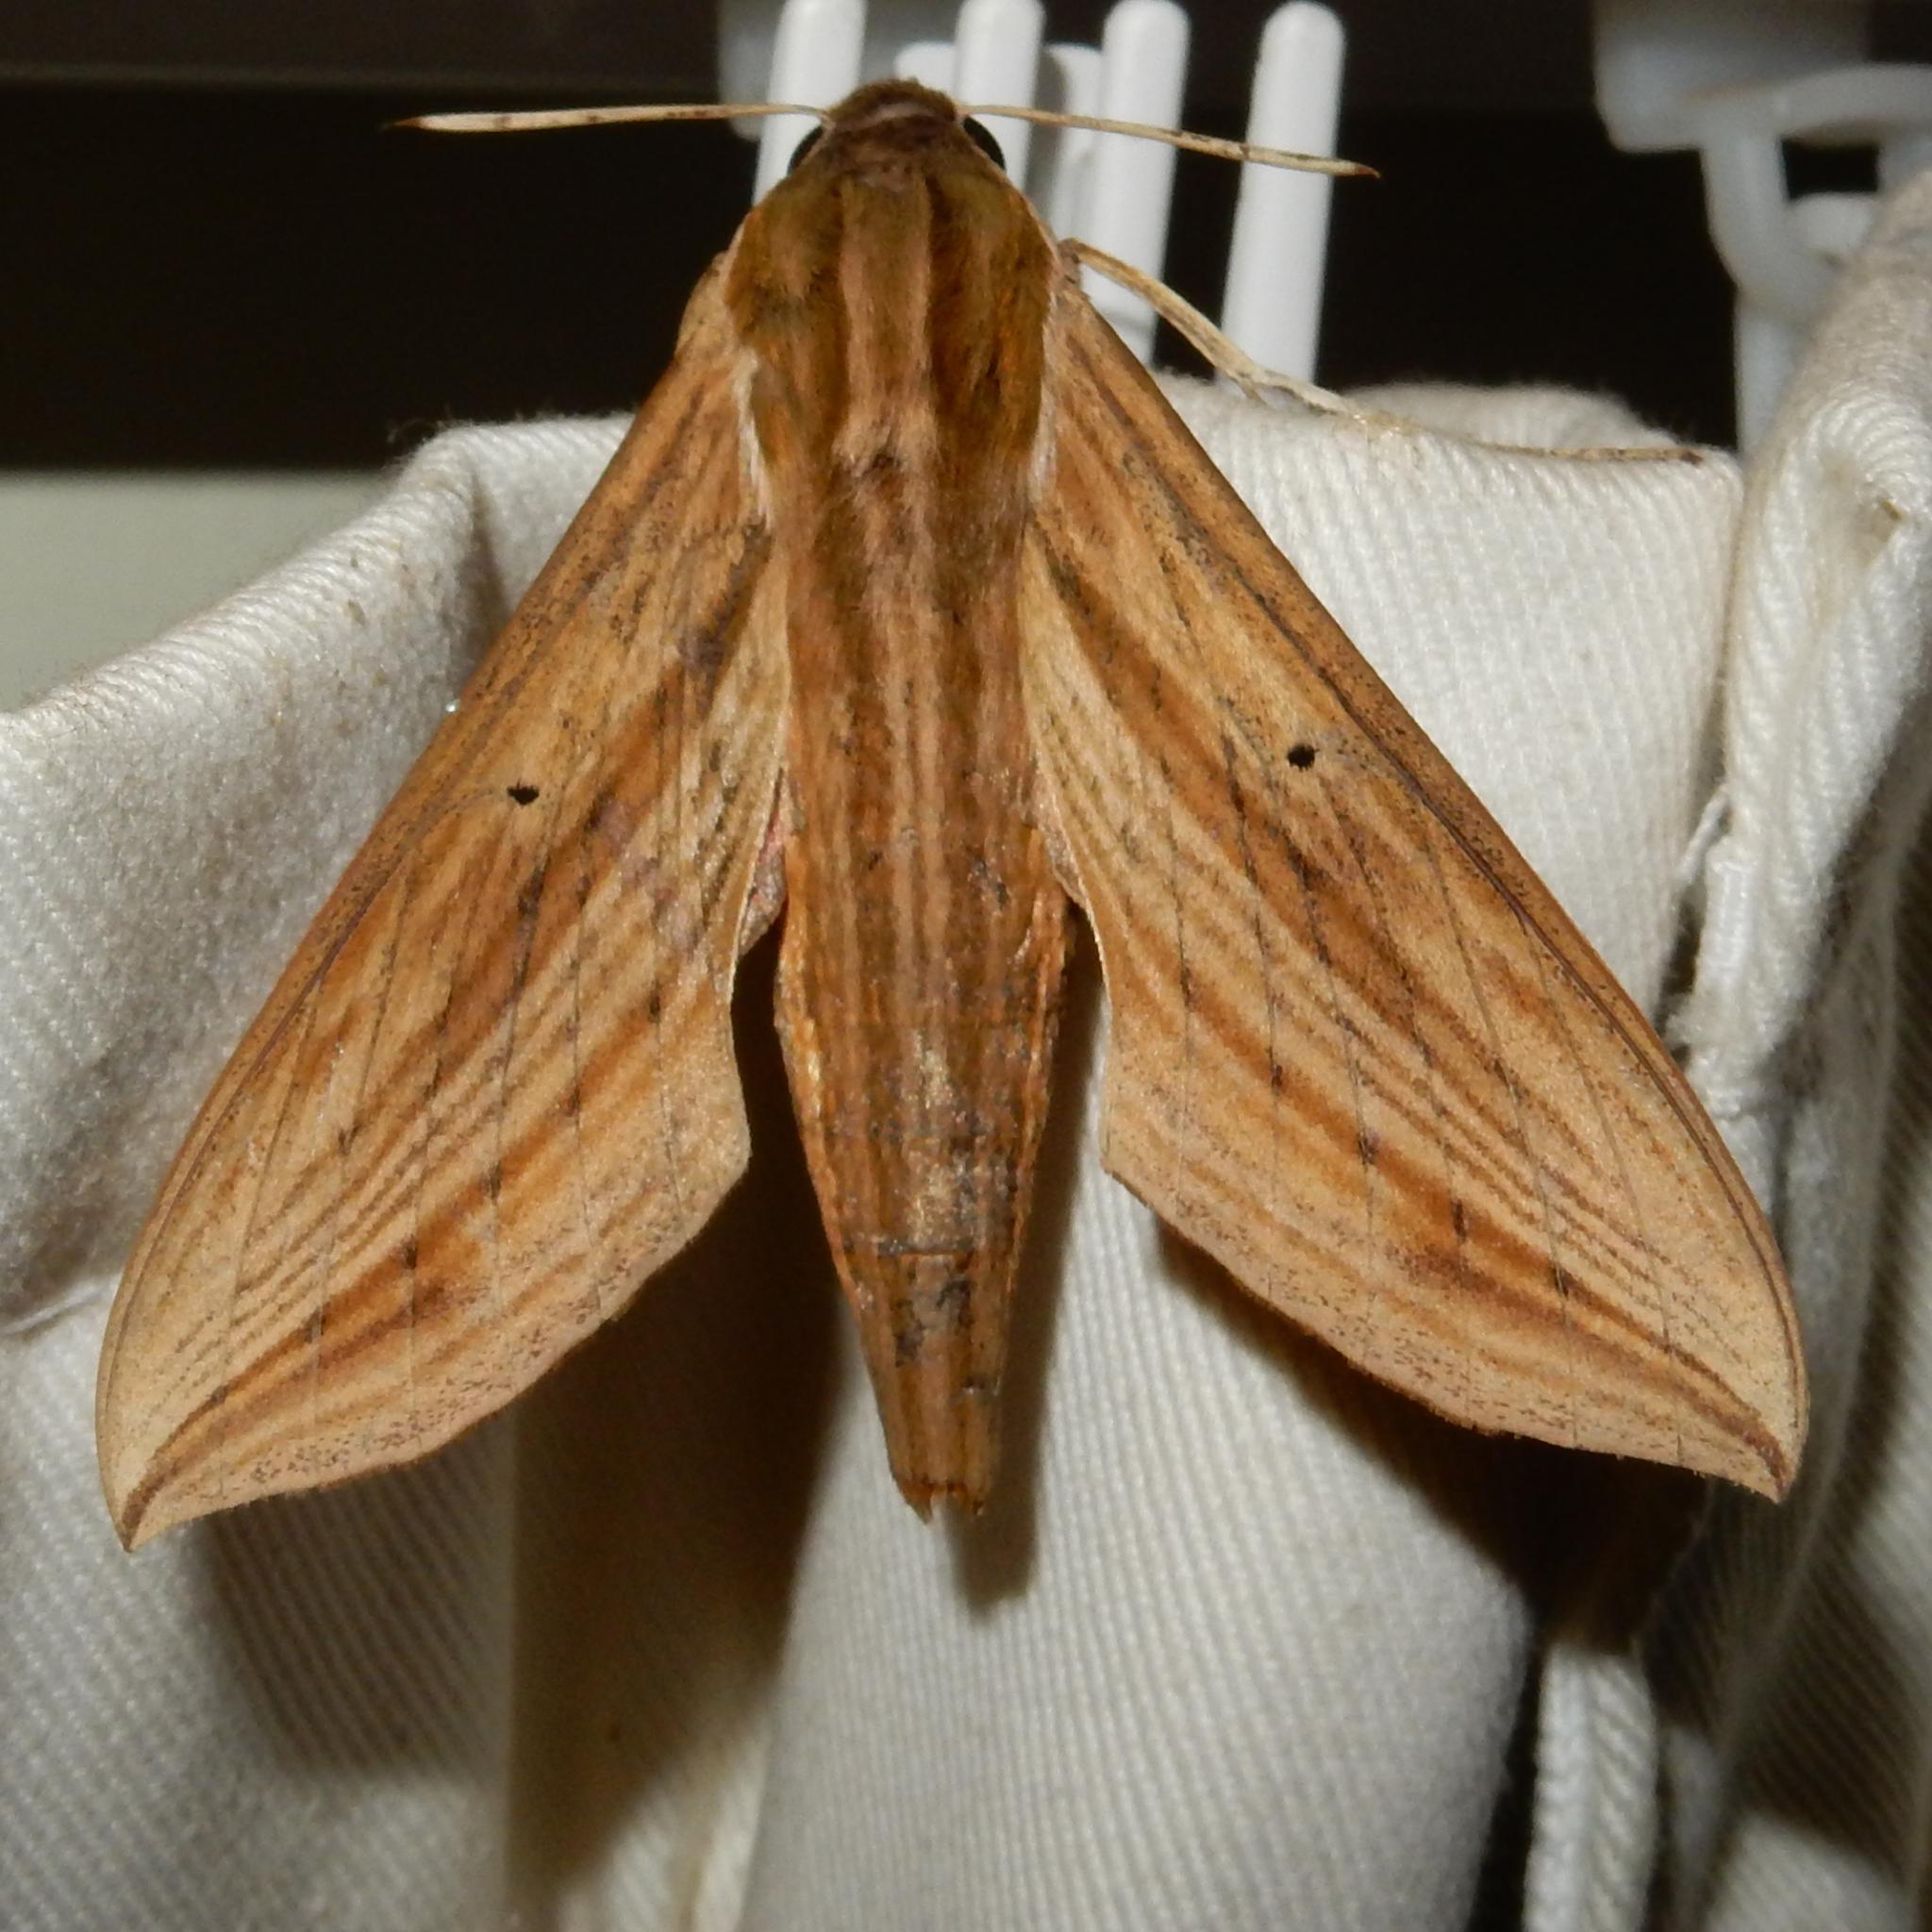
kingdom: Animalia
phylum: Arthropoda
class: Insecta
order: Lepidoptera
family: Sphingidae
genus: Hippotion
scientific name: Hippotion eson
